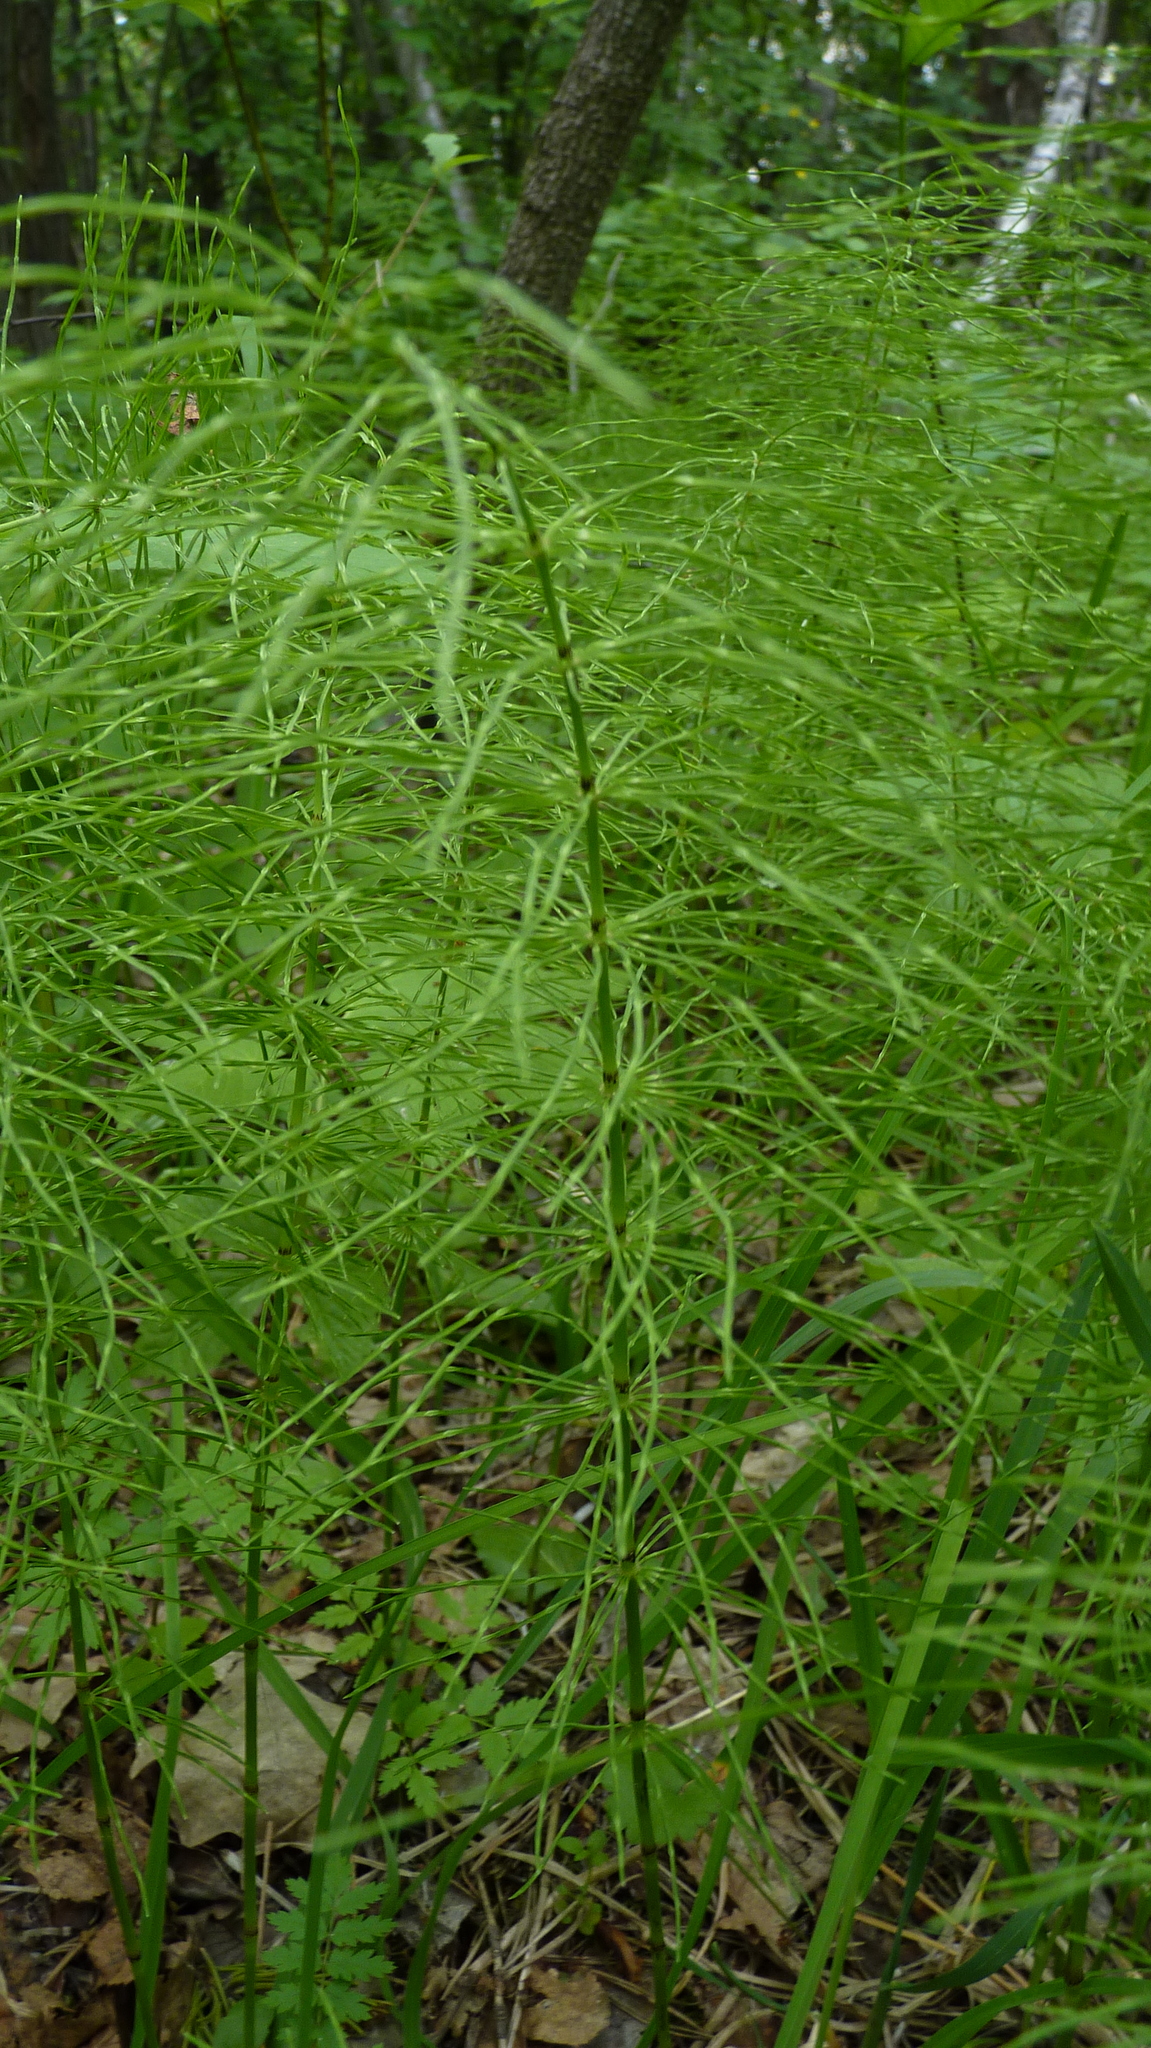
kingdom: Plantae
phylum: Tracheophyta
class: Polypodiopsida
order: Equisetales
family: Equisetaceae
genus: Equisetum
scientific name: Equisetum pratense
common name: Meadow horsetail
